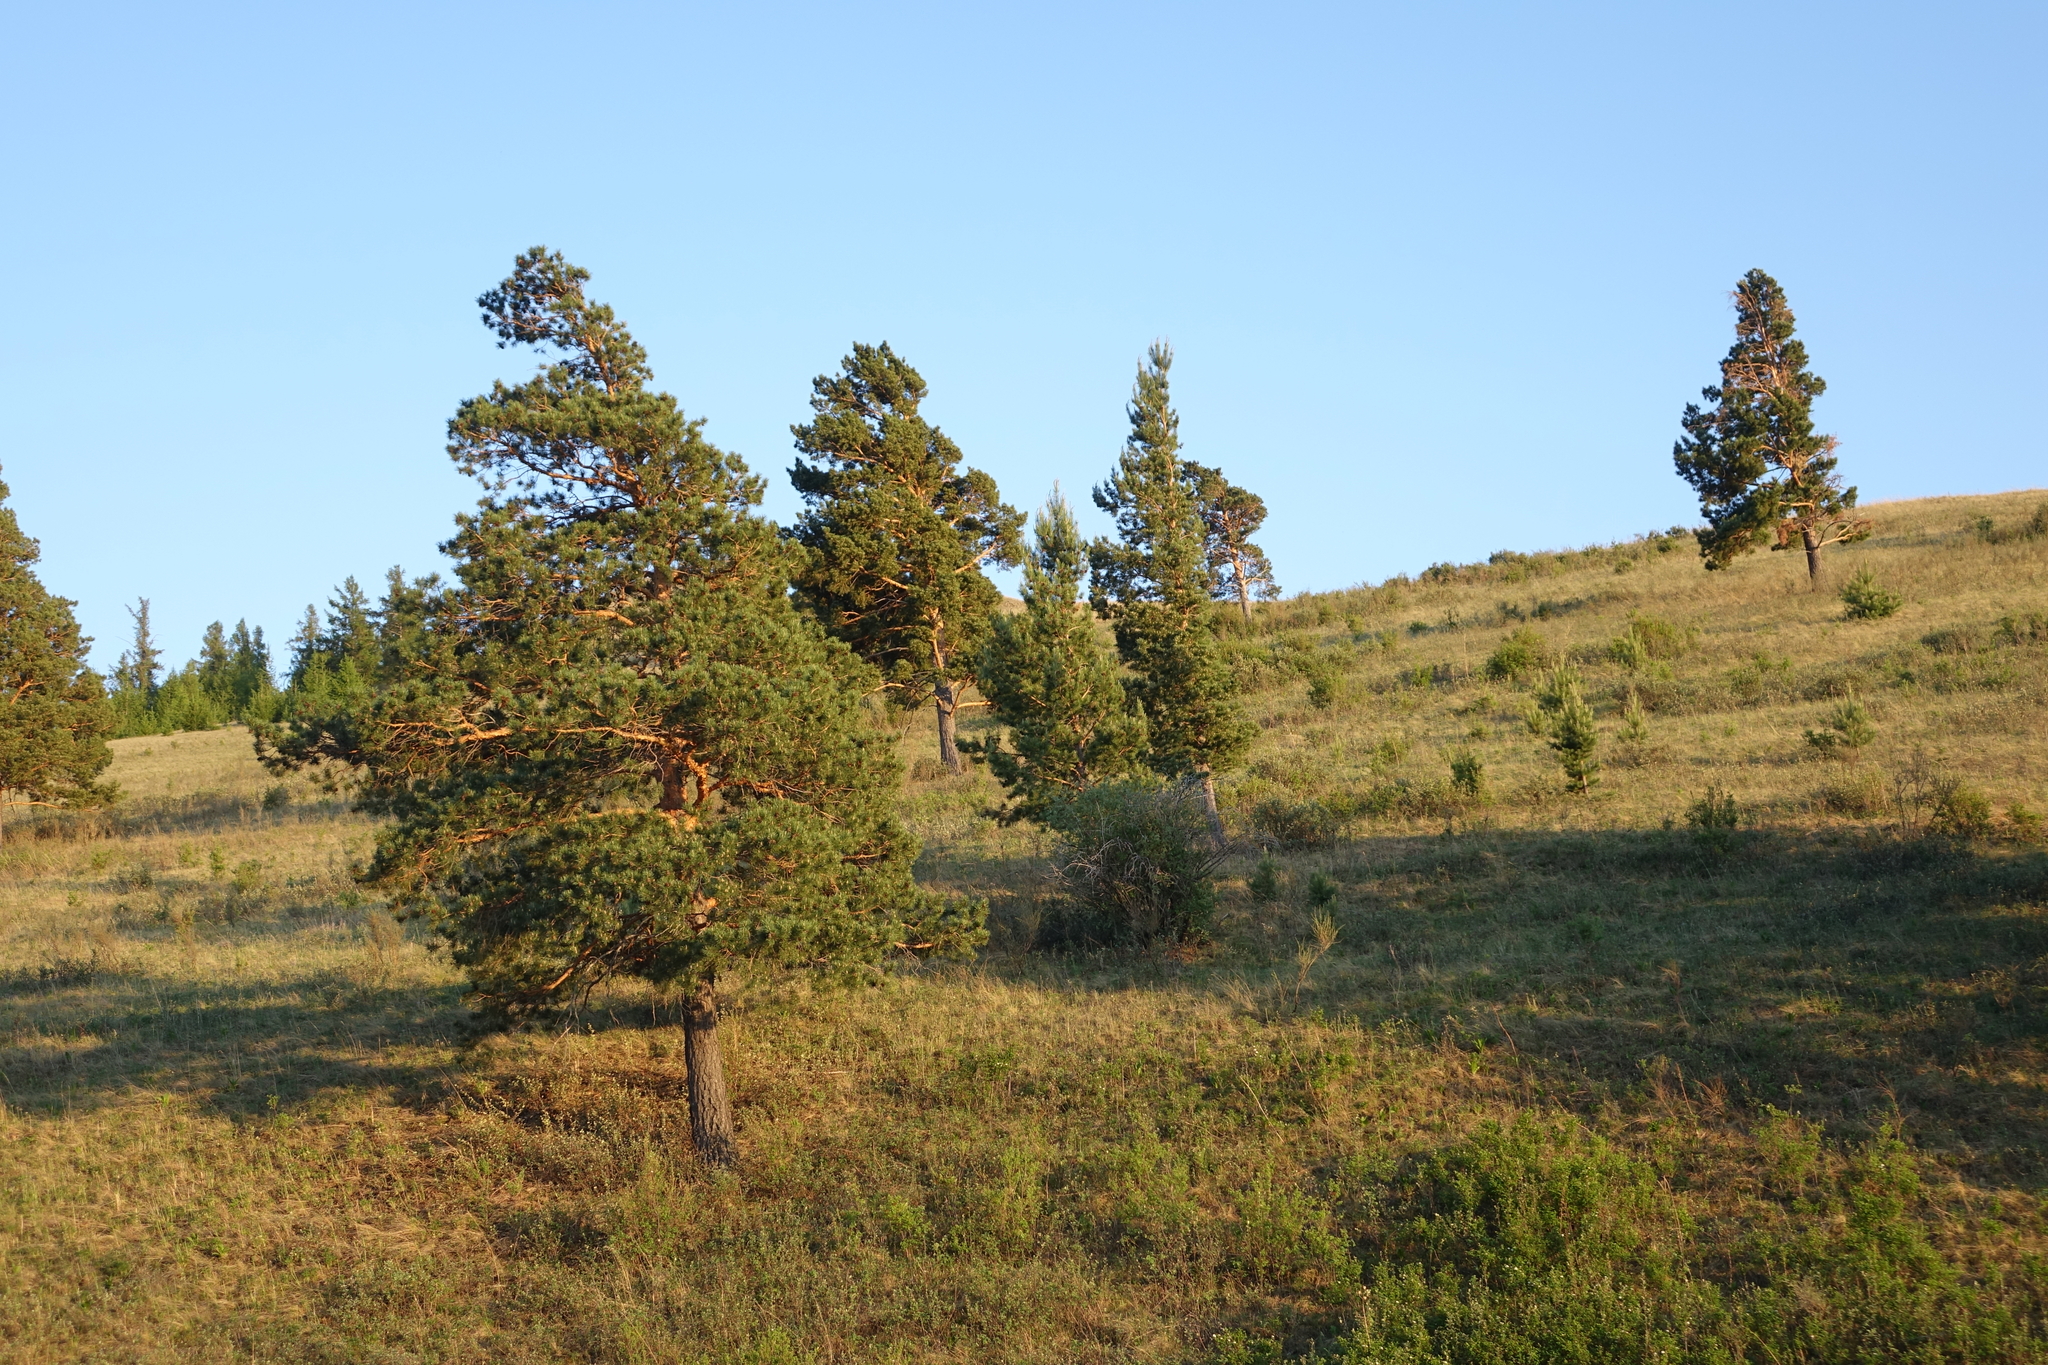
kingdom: Plantae
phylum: Tracheophyta
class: Pinopsida
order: Pinales
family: Pinaceae
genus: Pinus
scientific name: Pinus sylvestris
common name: Scots pine
